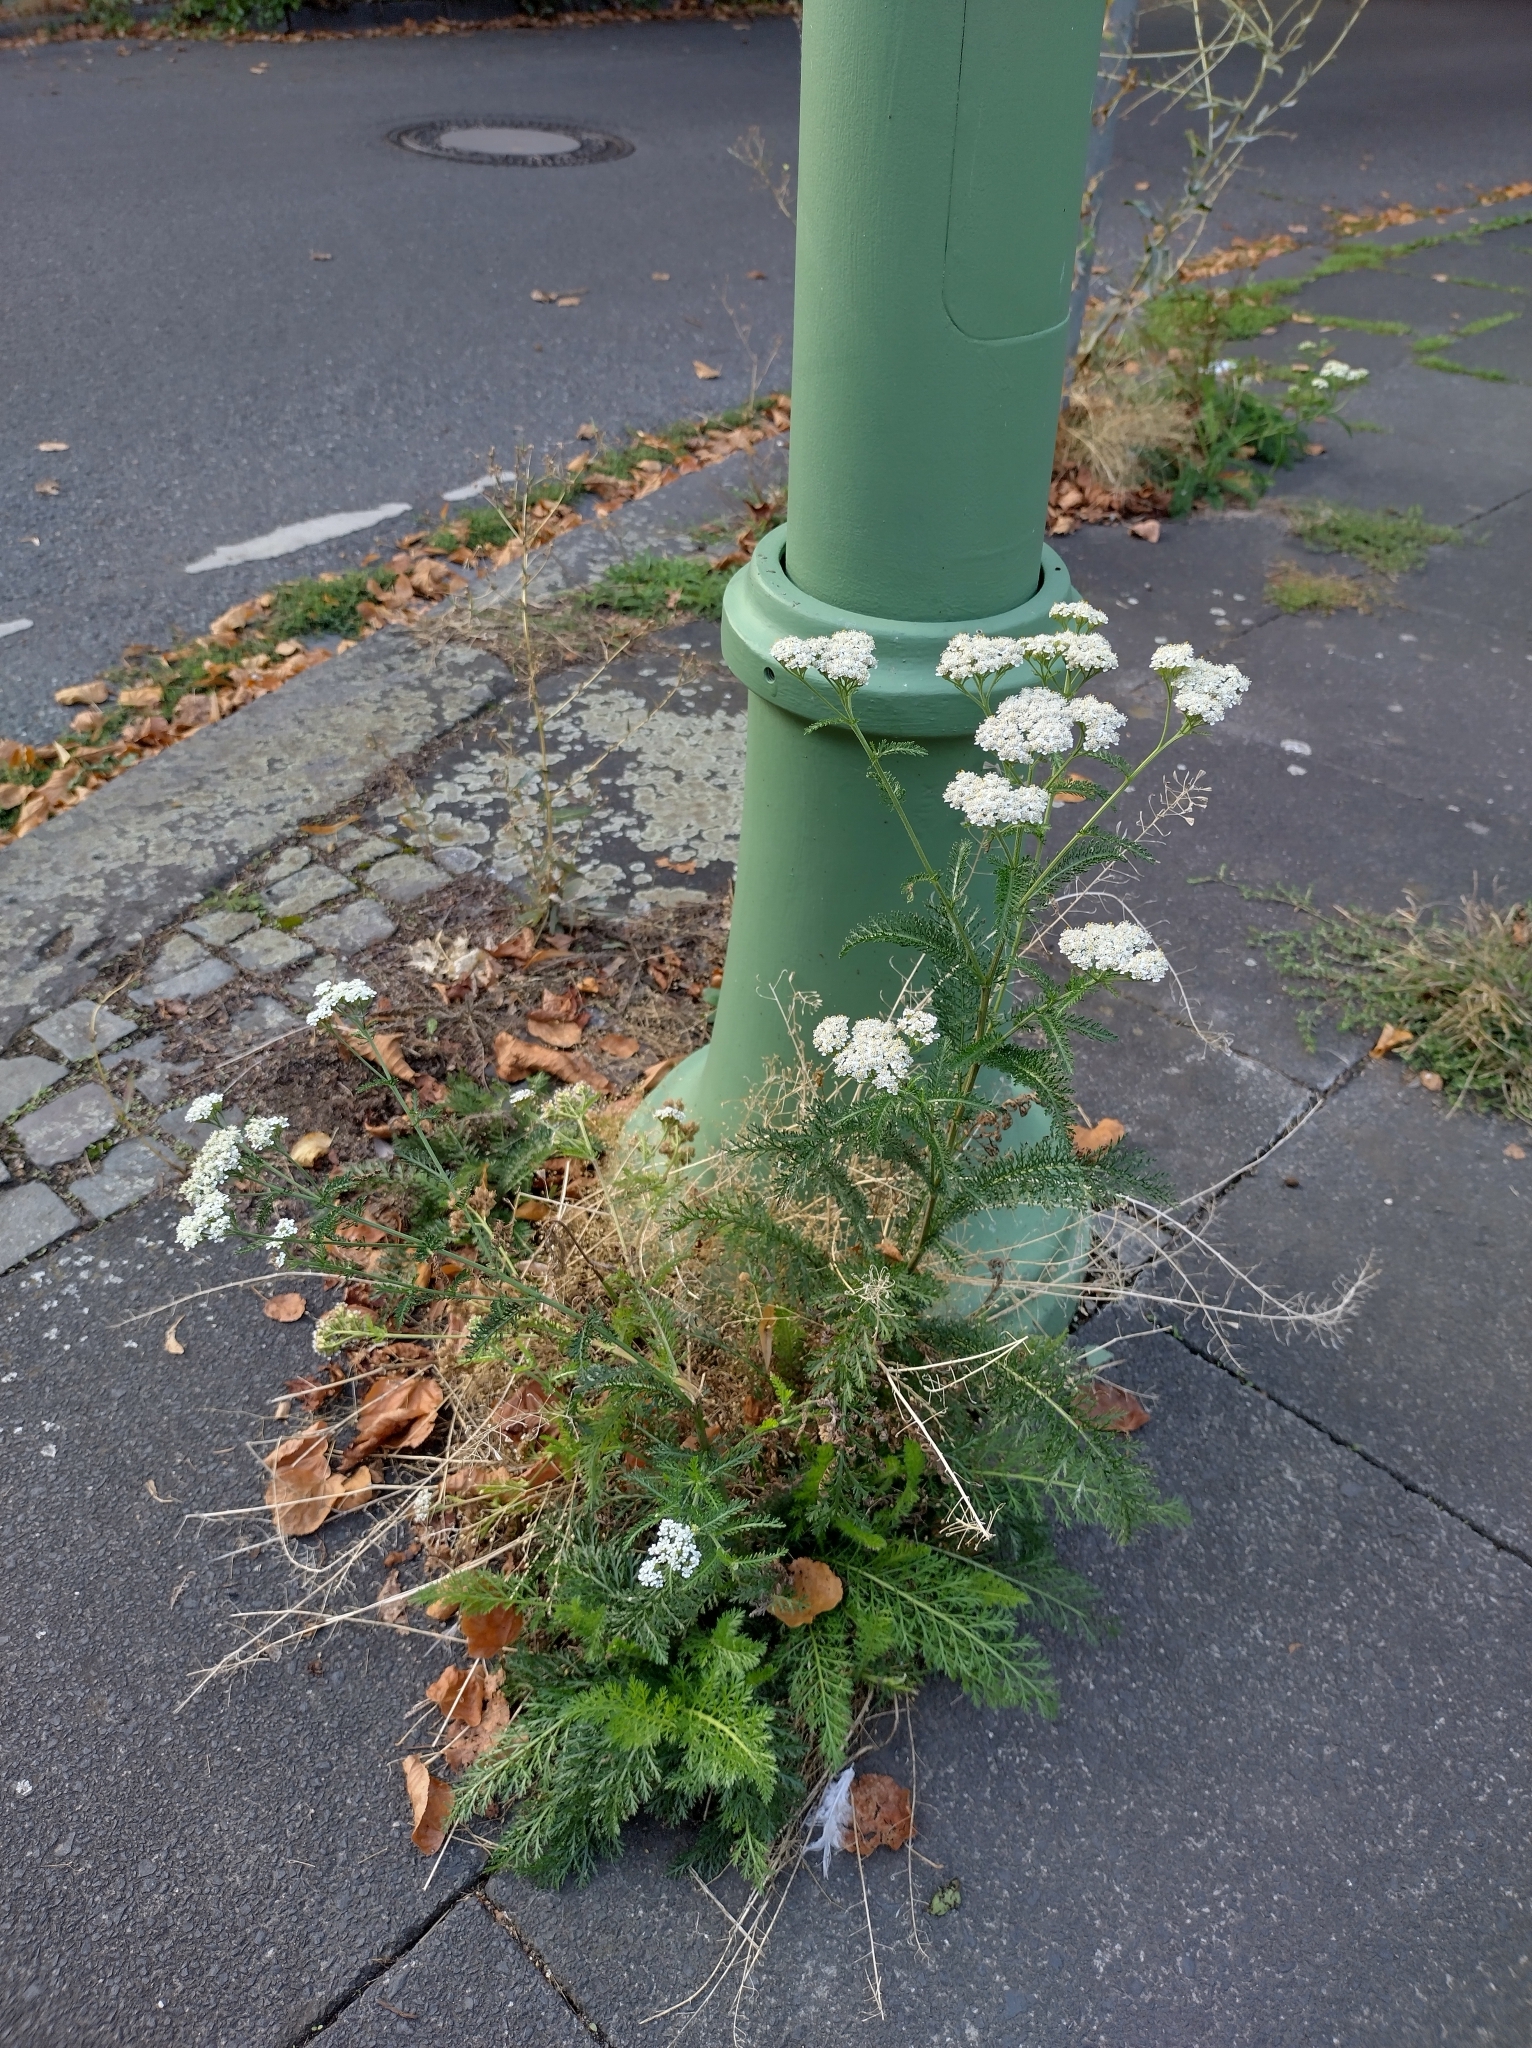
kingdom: Plantae
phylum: Tracheophyta
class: Magnoliopsida
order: Asterales
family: Asteraceae
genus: Achillea
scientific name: Achillea millefolium
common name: Yarrow
